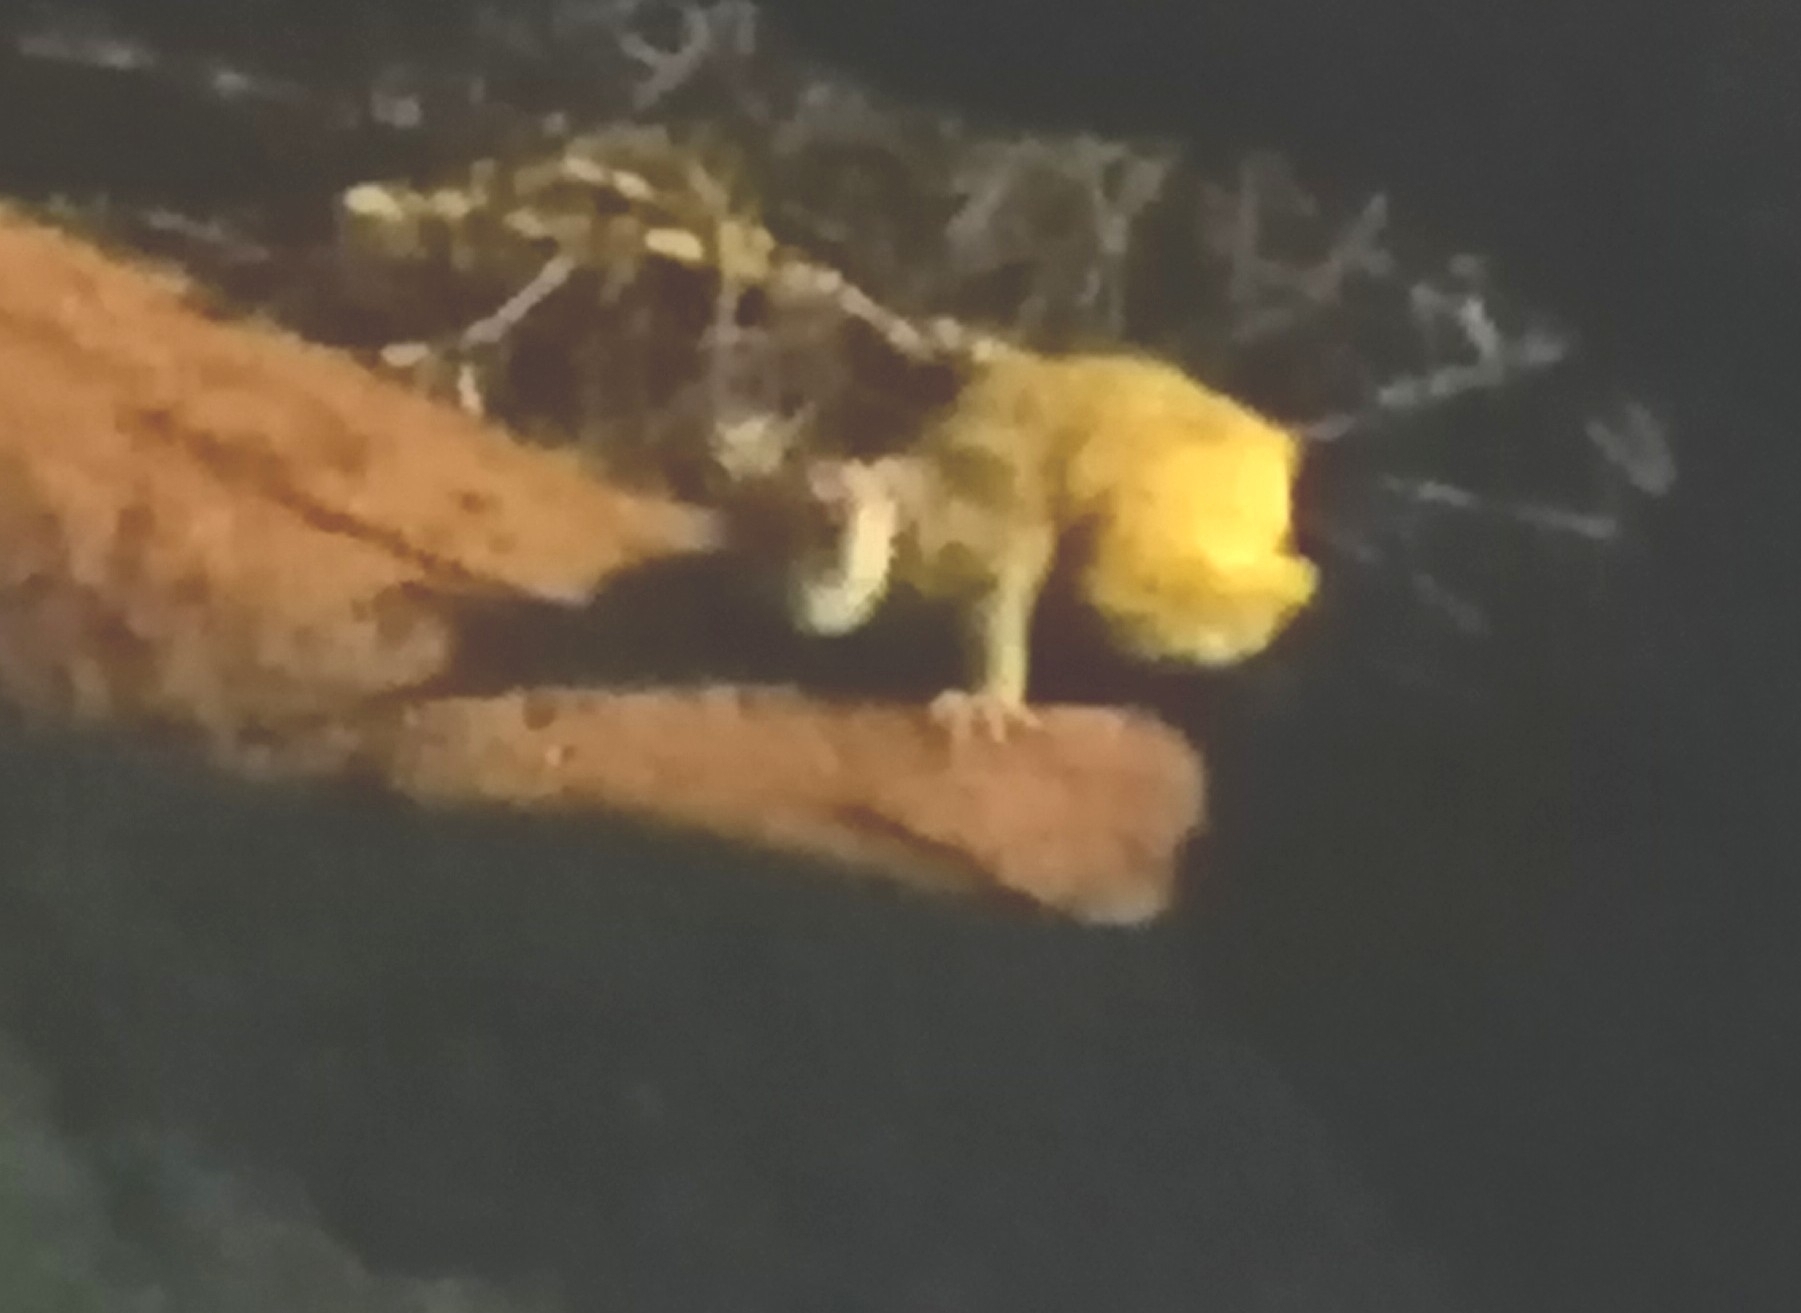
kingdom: Animalia
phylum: Chordata
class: Mammalia
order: Primates
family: Galagidae
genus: Galago
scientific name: Galago senegalensis
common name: Senegal bushbaby
